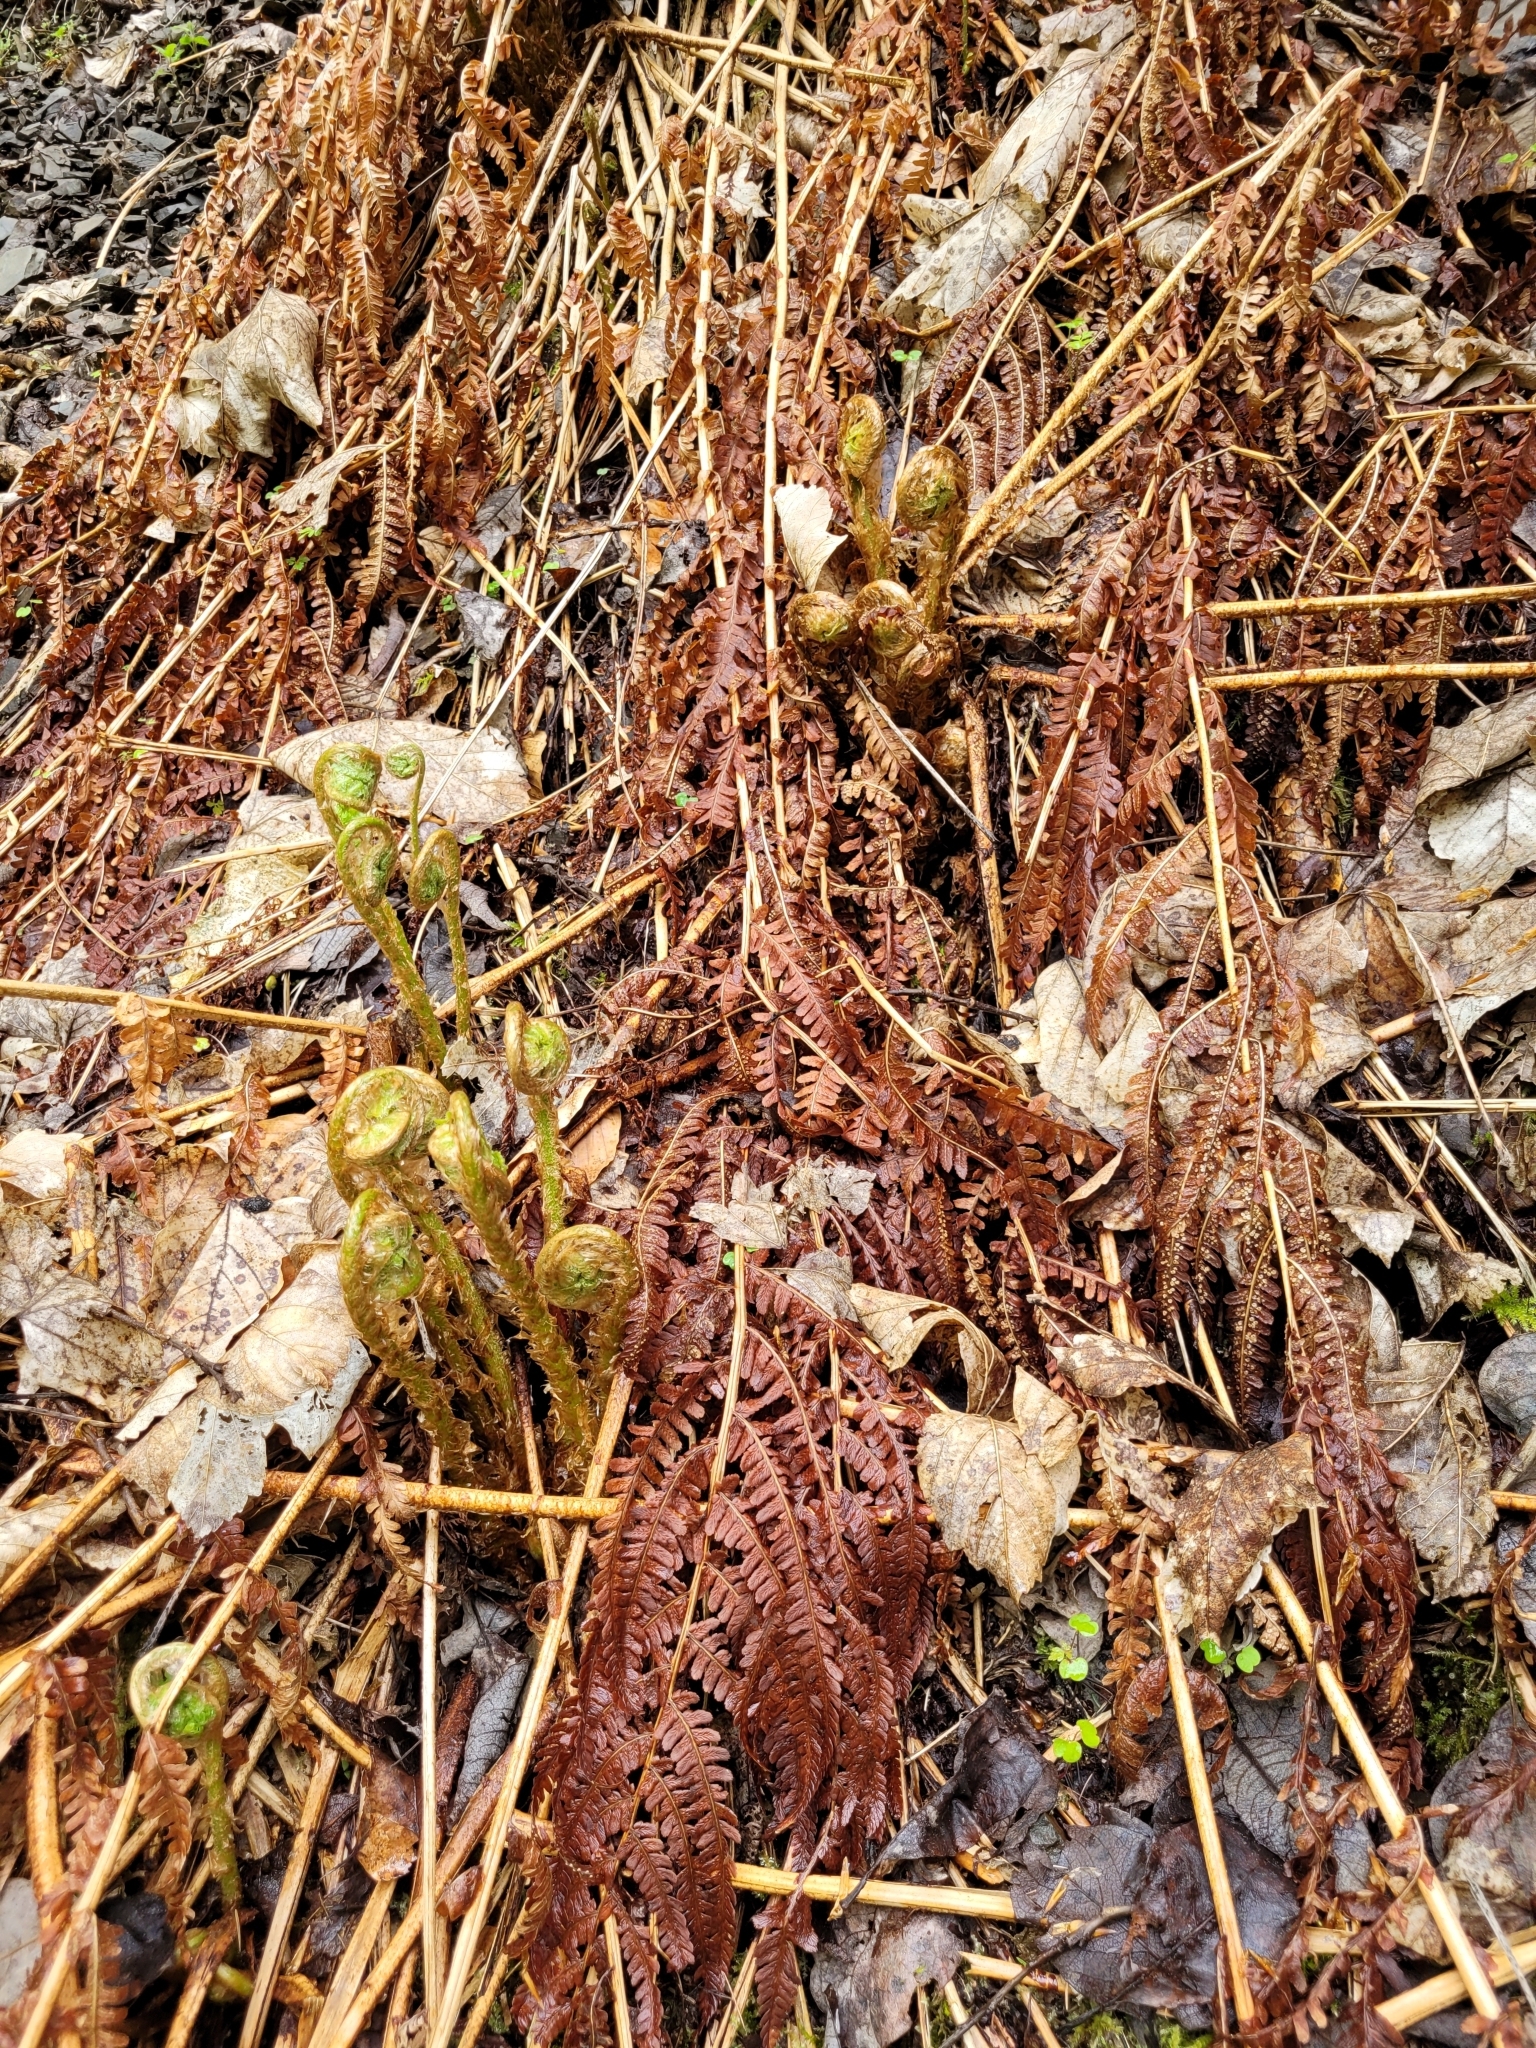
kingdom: Plantae
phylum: Tracheophyta
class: Polypodiopsida
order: Polypodiales
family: Dryopteridaceae
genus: Dryopteris
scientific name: Dryopteris filix-mas
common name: Male fern
